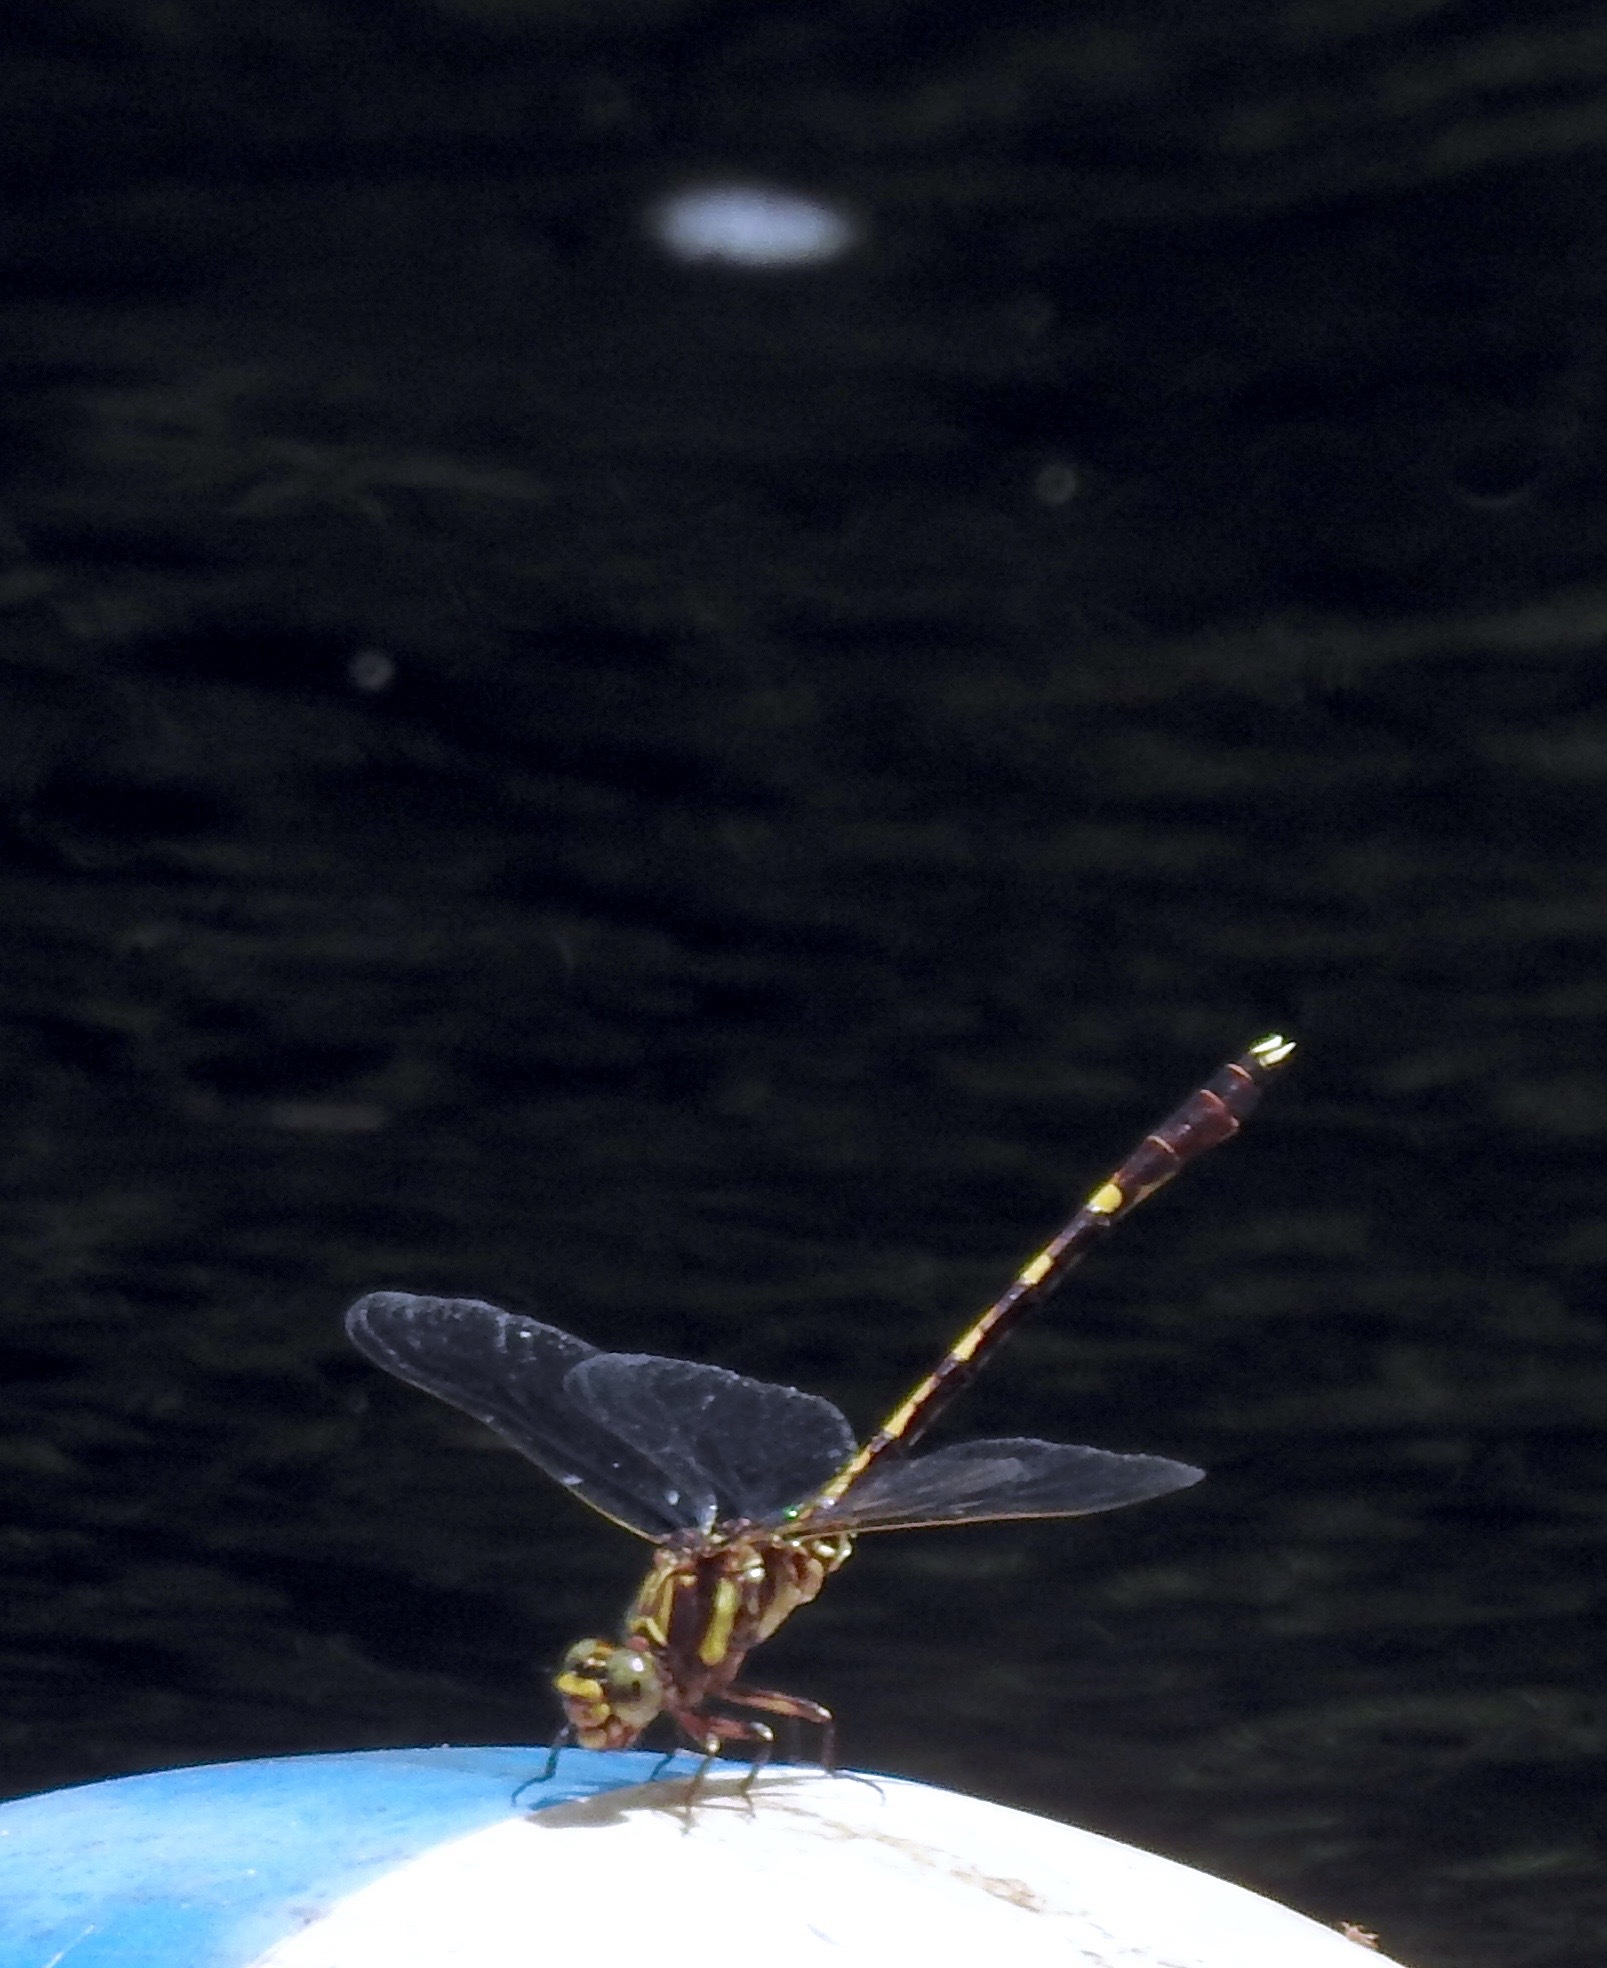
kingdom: Animalia
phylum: Arthropoda
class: Insecta
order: Odonata
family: Gomphidae
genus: Progomphus
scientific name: Progomphus obscurus
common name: Common sanddragon
